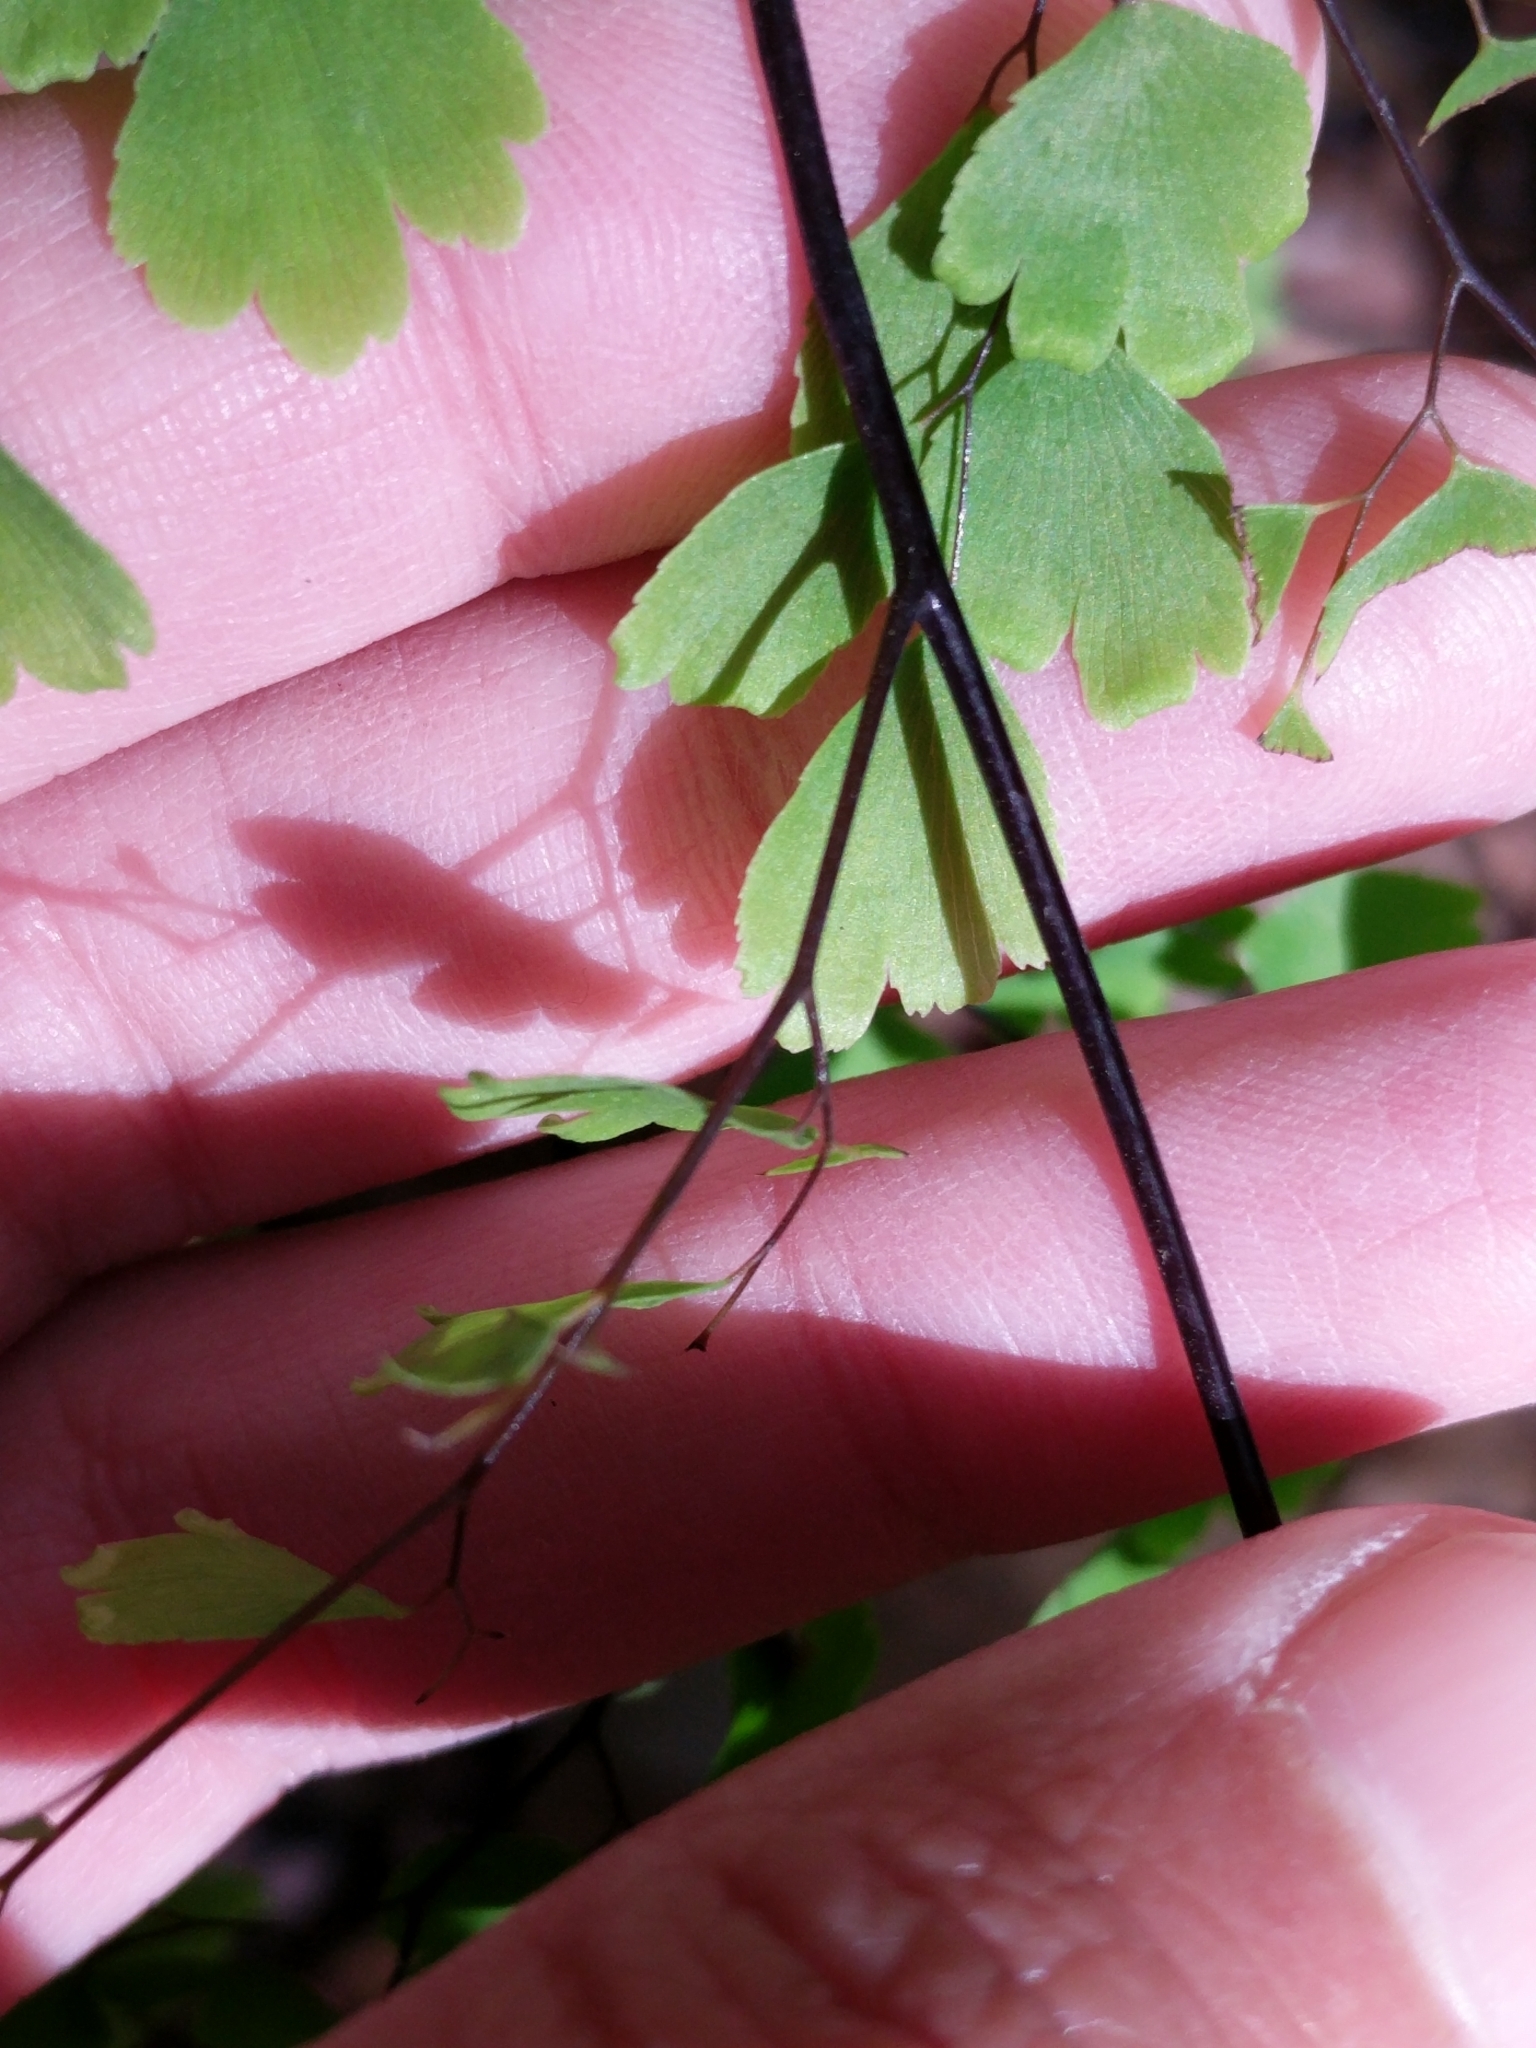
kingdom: Plantae
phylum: Tracheophyta
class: Polypodiopsida
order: Polypodiales
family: Pteridaceae
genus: Adiantum
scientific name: Adiantum capillus-veneris
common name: Maidenhair fern
